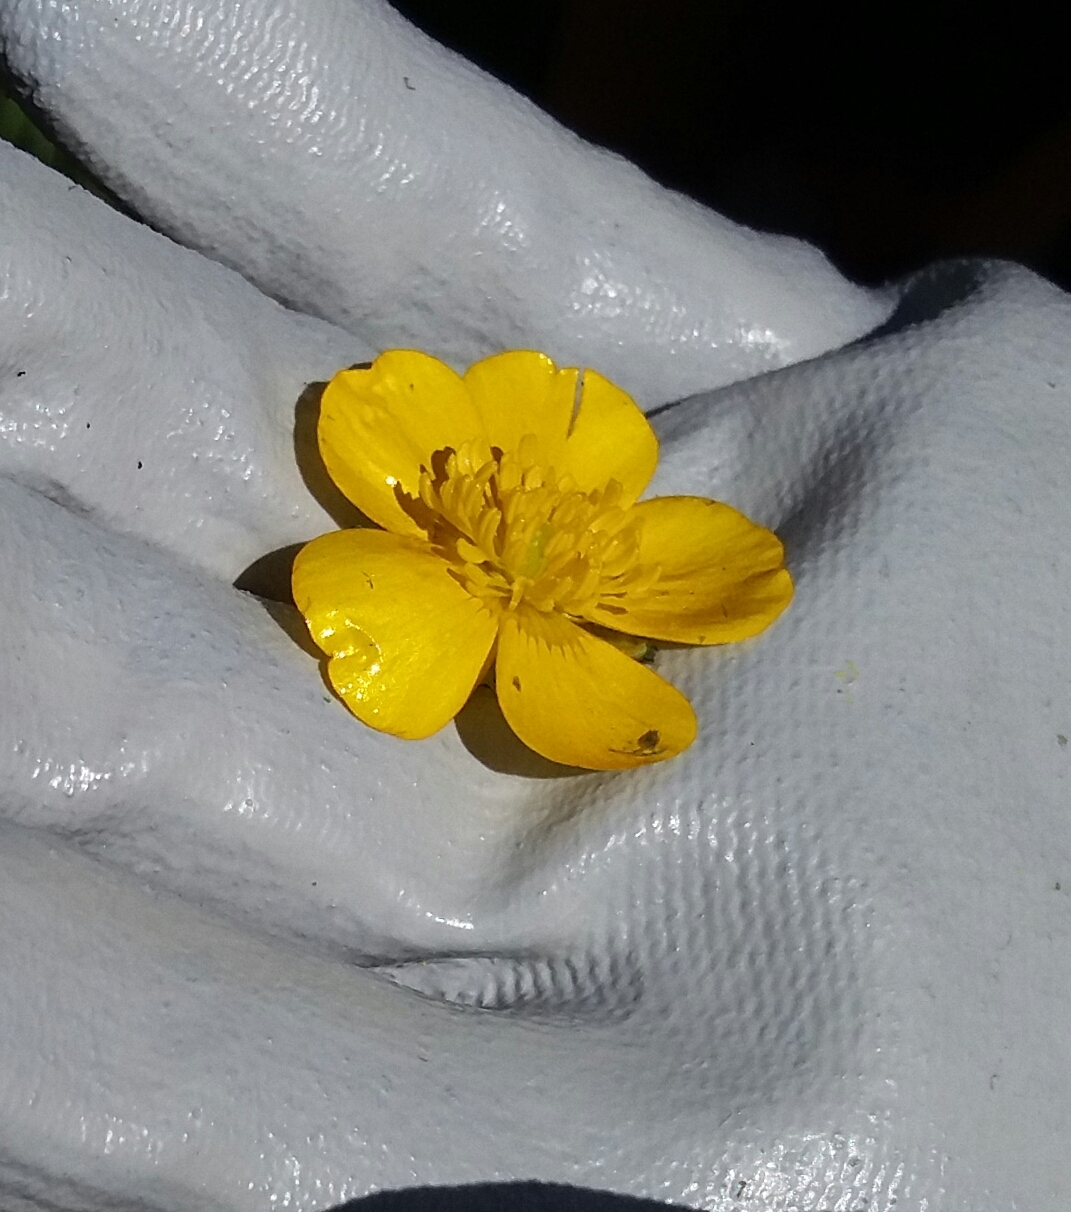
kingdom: Plantae
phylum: Tracheophyta
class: Magnoliopsida
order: Ranunculales
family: Ranunculaceae
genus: Ranunculus
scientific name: Ranunculus repens
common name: Creeping buttercup
